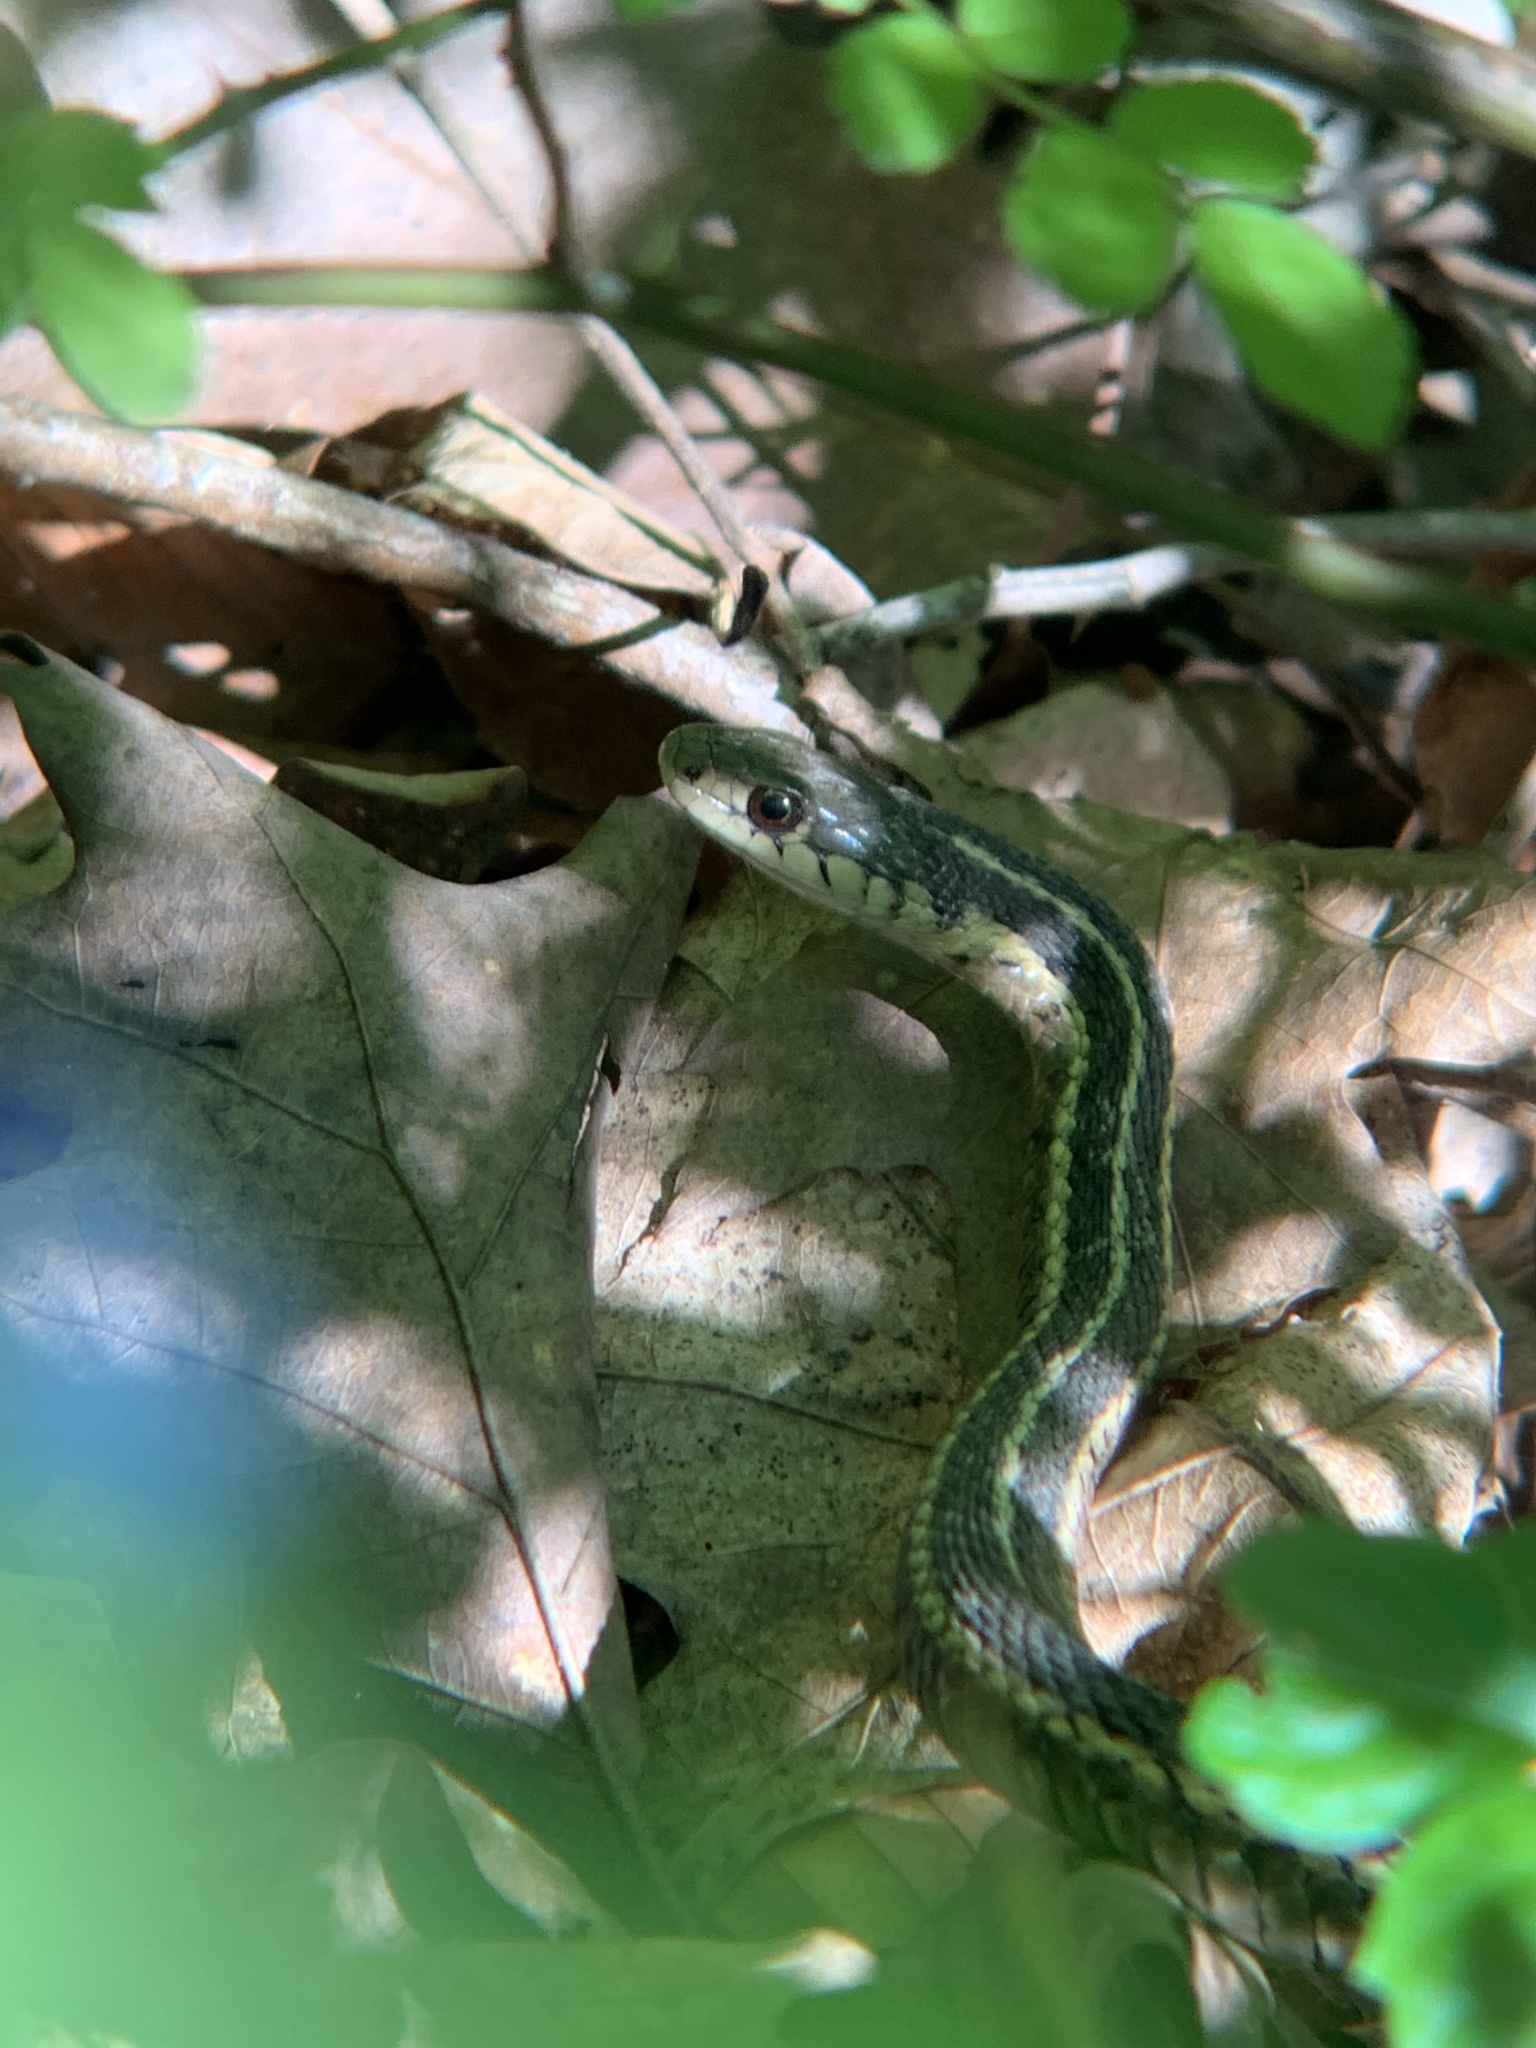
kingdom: Animalia
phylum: Chordata
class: Squamata
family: Colubridae
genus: Thamnophis
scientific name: Thamnophis sirtalis
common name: Common garter snake
